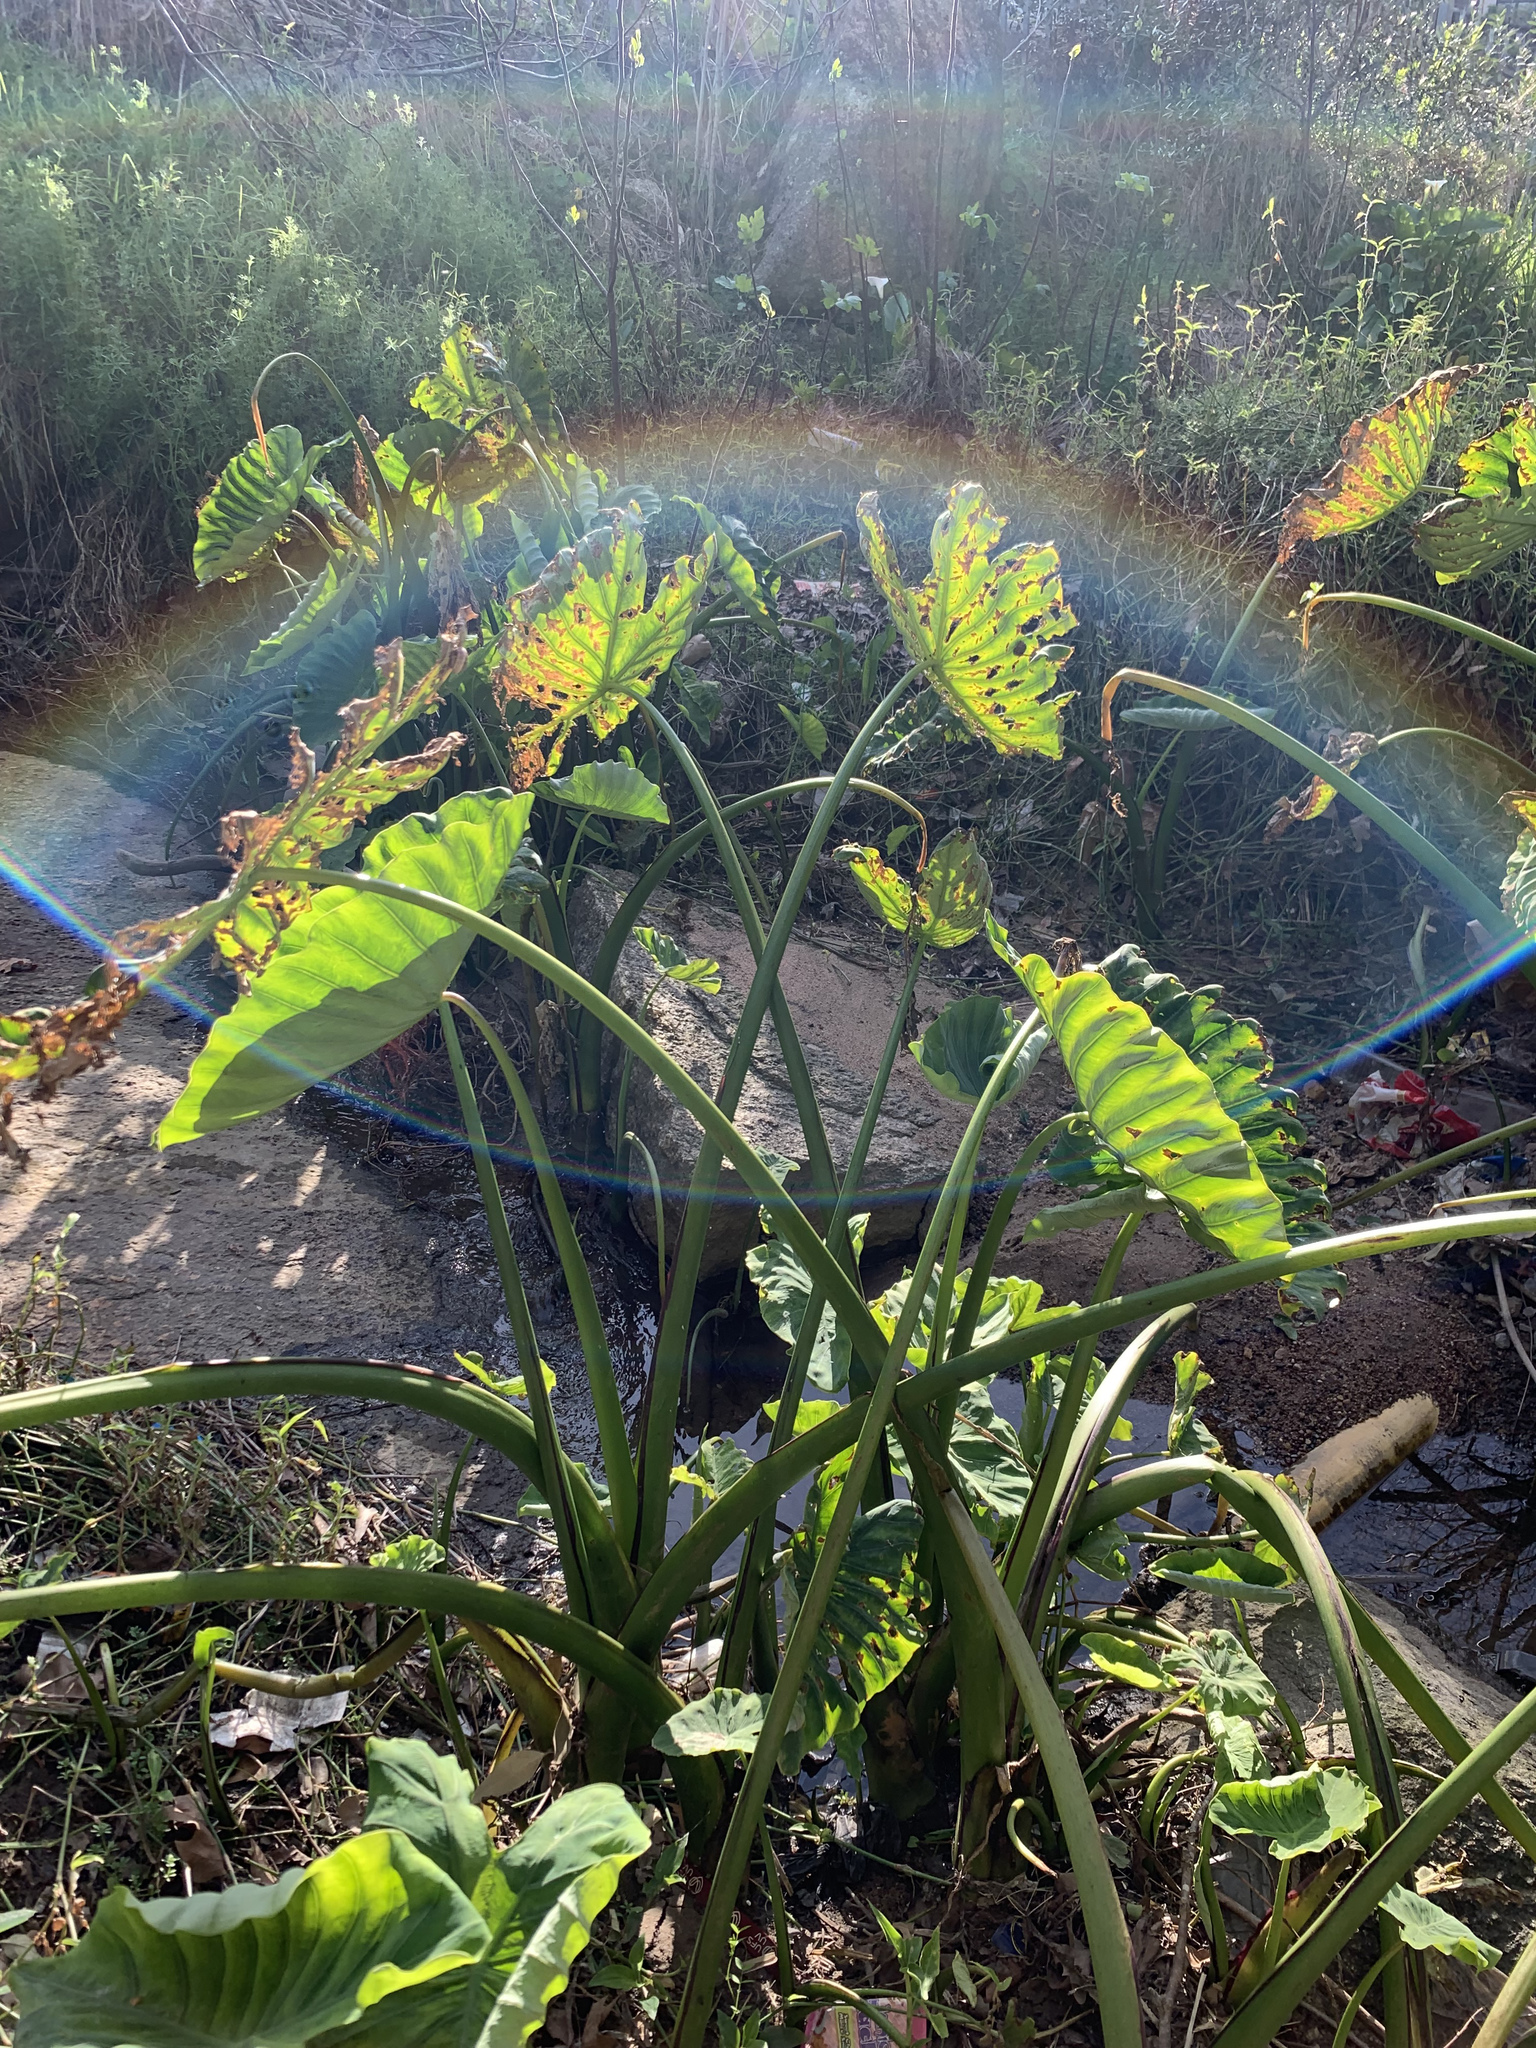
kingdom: Plantae
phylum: Tracheophyta
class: Liliopsida
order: Alismatales
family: Araceae
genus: Colocasia
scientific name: Colocasia esculenta
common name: Taro
